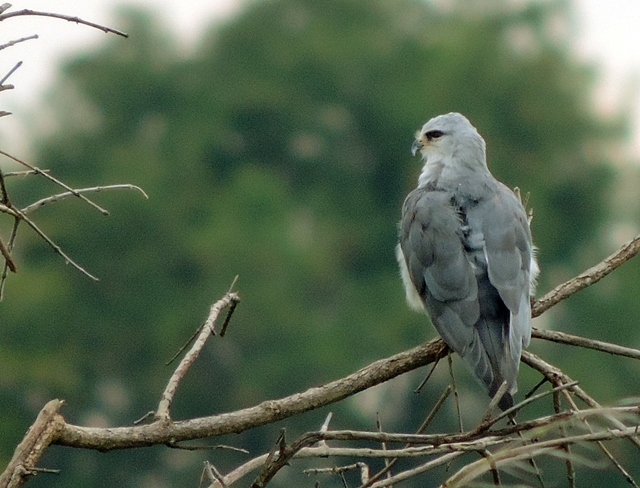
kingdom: Animalia
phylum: Chordata
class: Aves
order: Accipitriformes
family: Accipitridae
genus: Elanus
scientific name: Elanus caeruleus
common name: Black-winged kite
